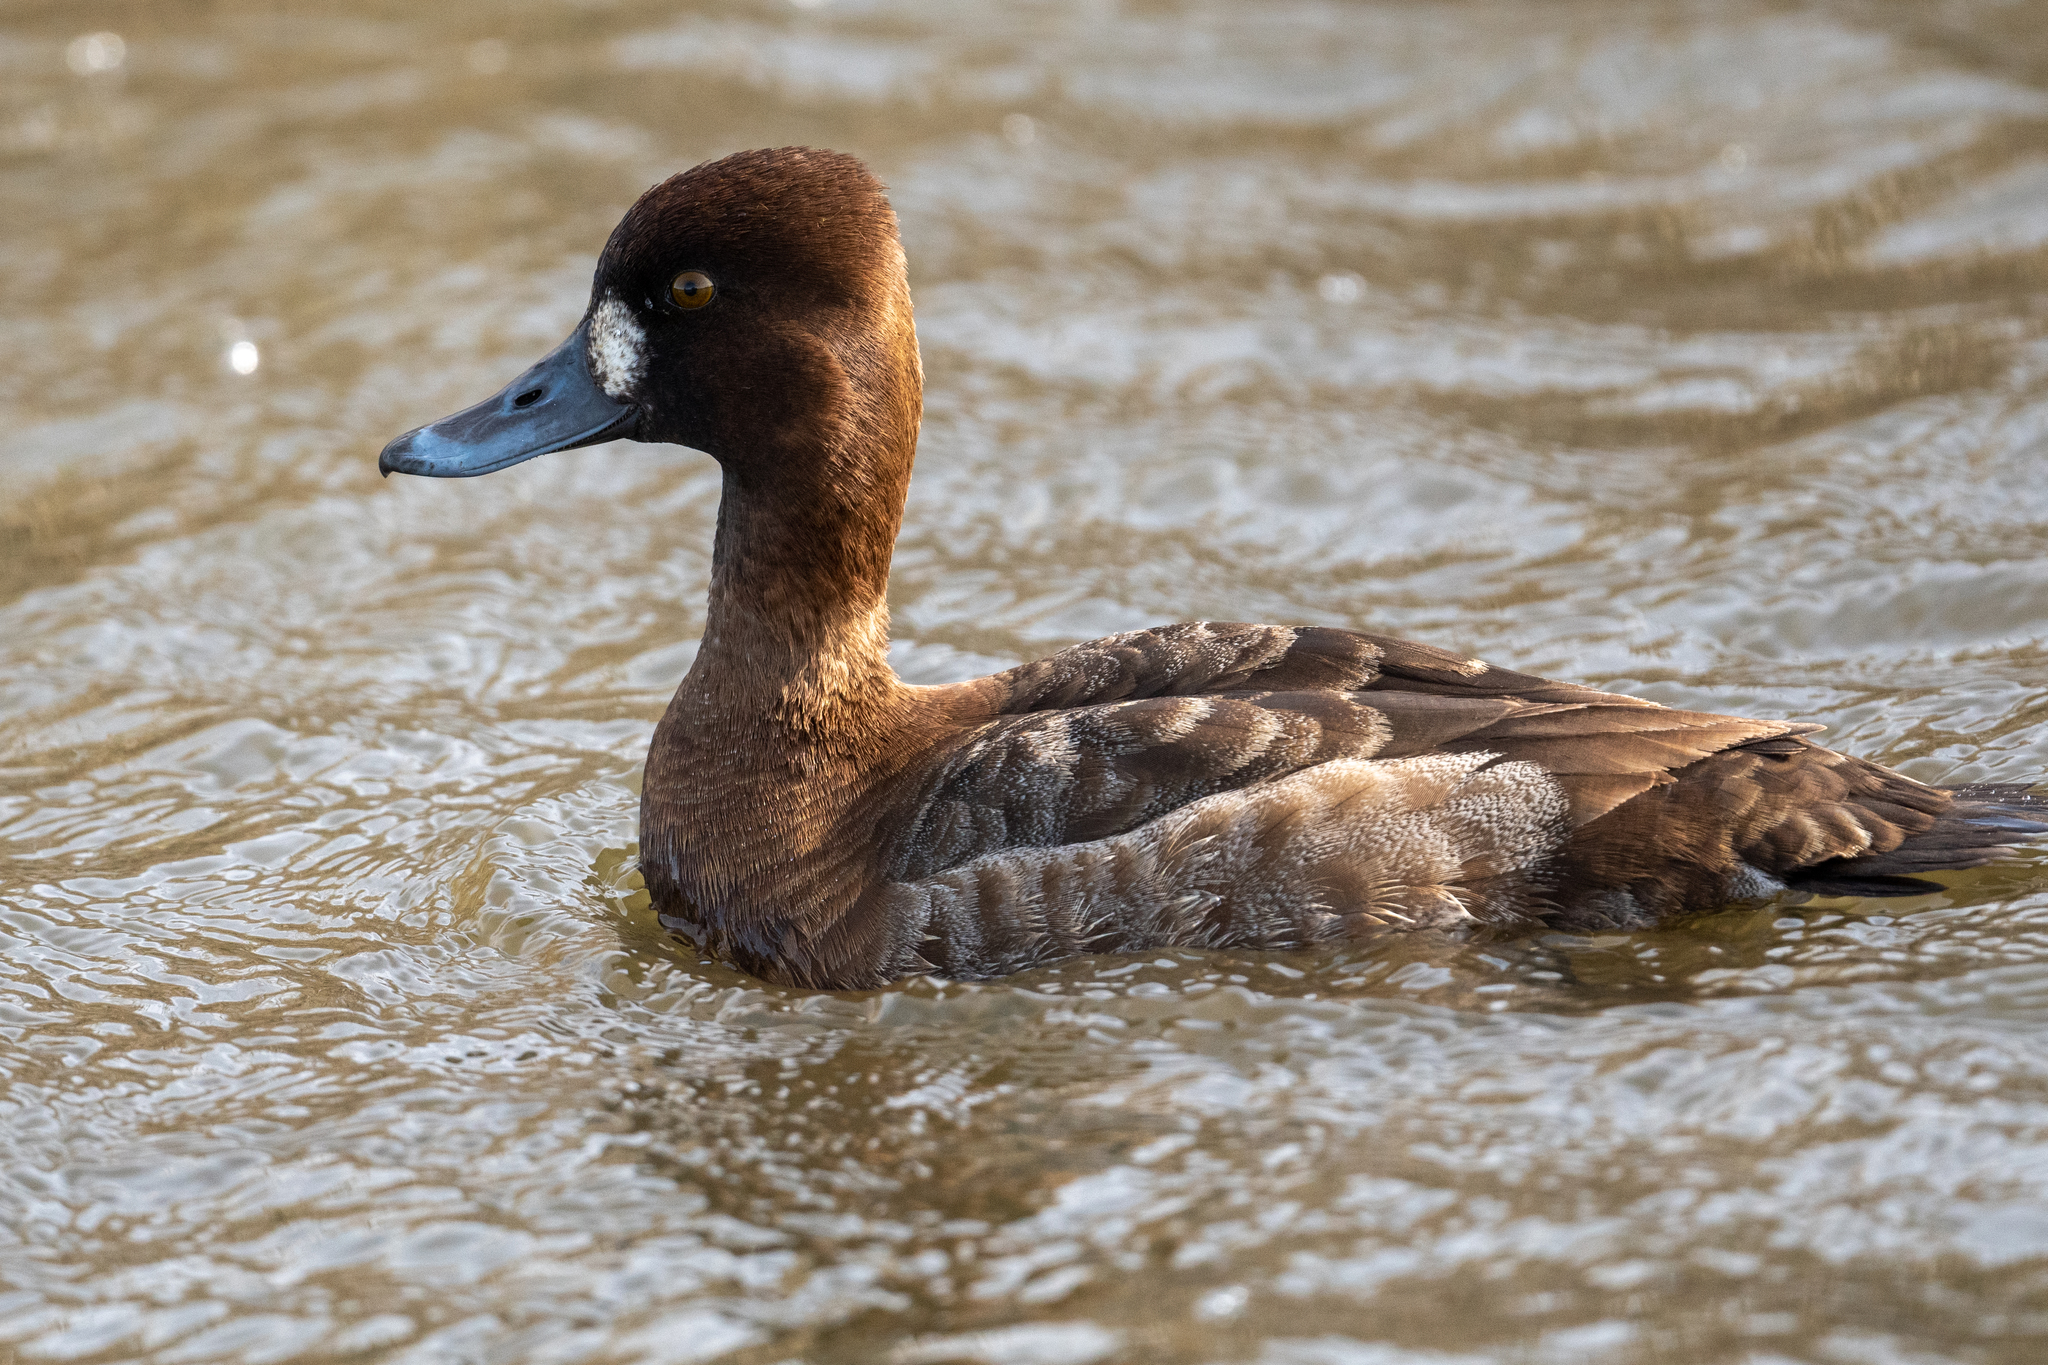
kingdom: Animalia
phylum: Chordata
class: Aves
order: Anseriformes
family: Anatidae
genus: Aythya
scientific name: Aythya affinis
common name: Lesser scaup
